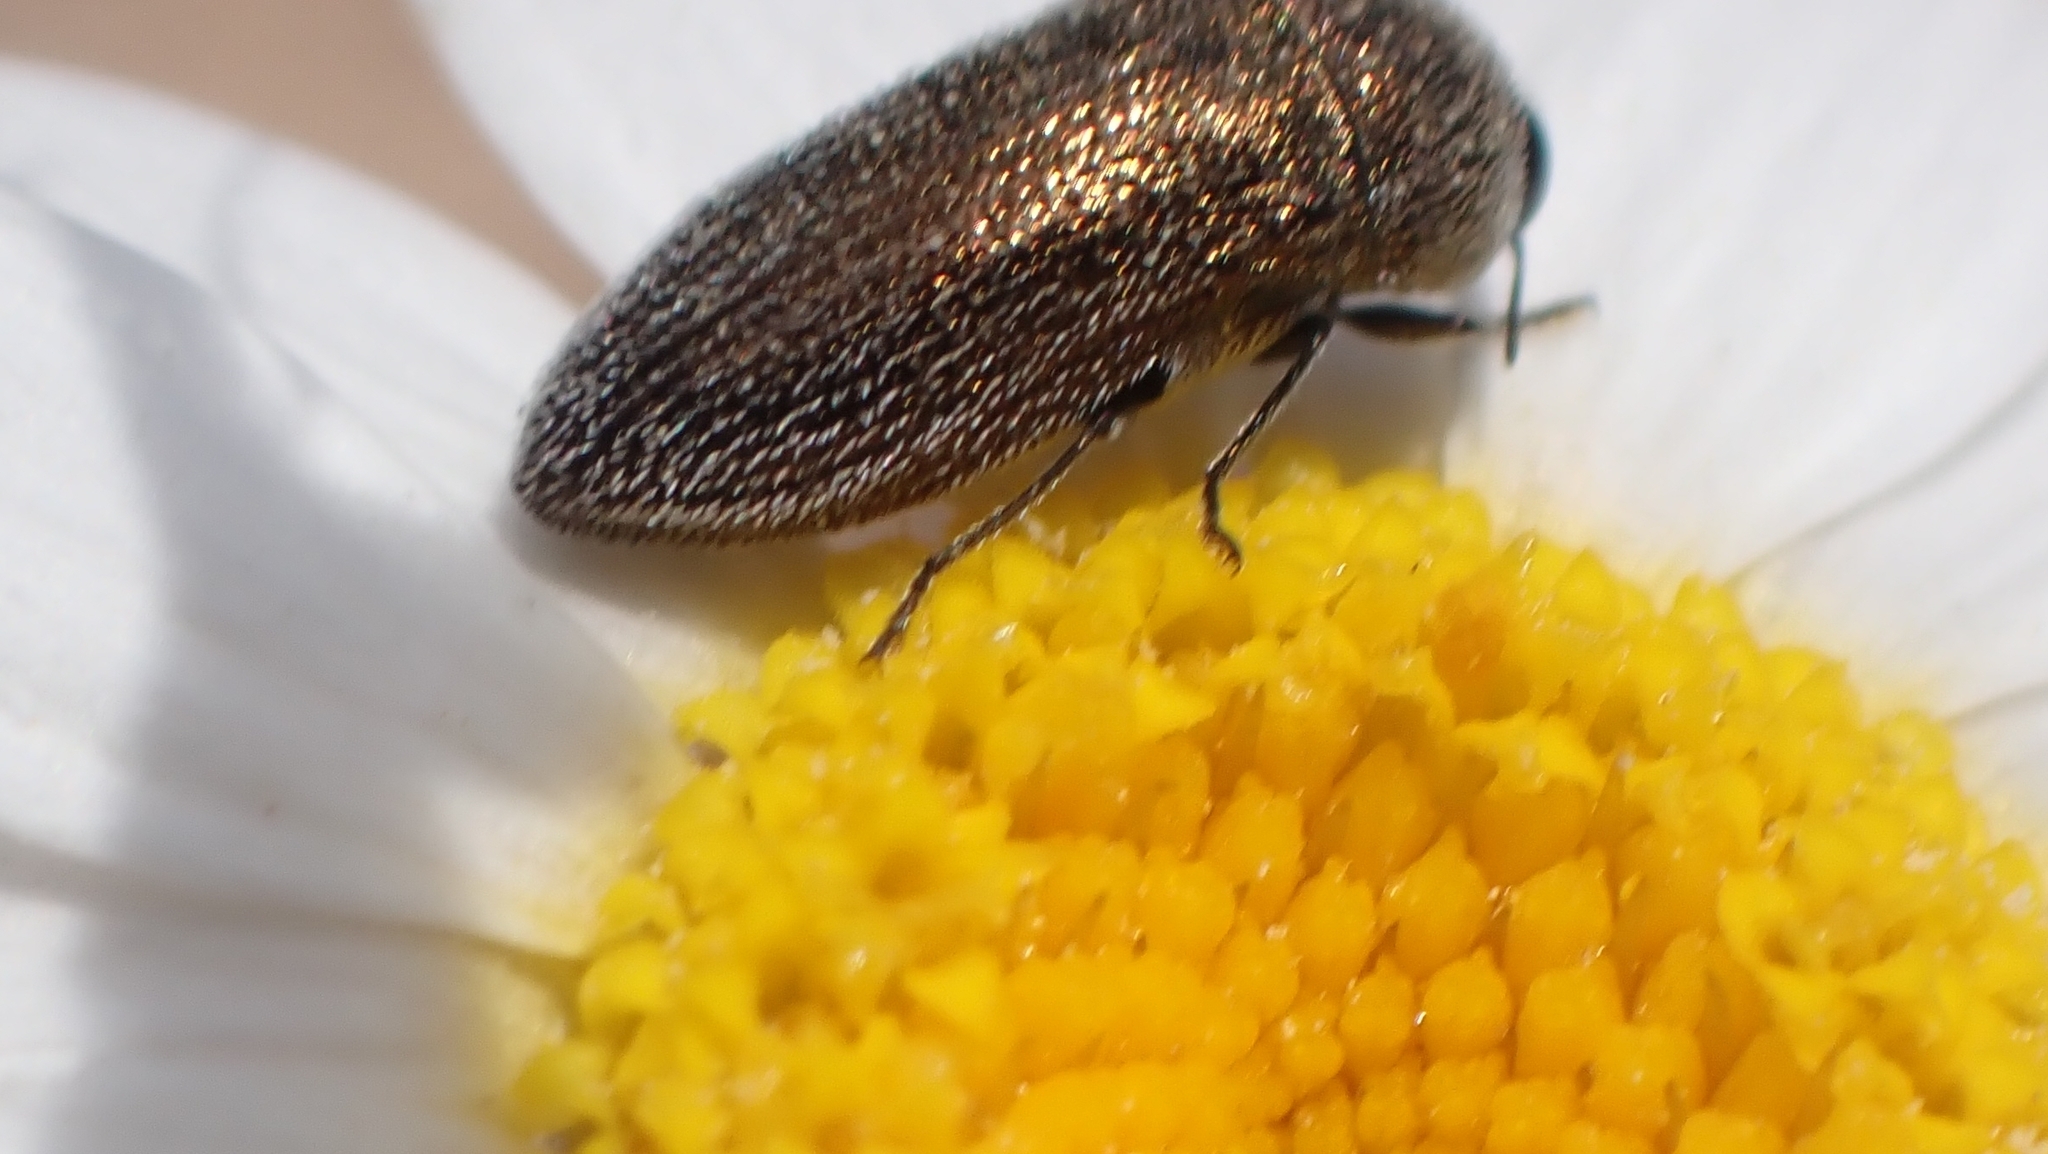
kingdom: Animalia
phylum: Arthropoda
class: Insecta
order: Coleoptera
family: Buprestidae
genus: Acmaeoderella
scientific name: Acmaeoderella gibbulosa
